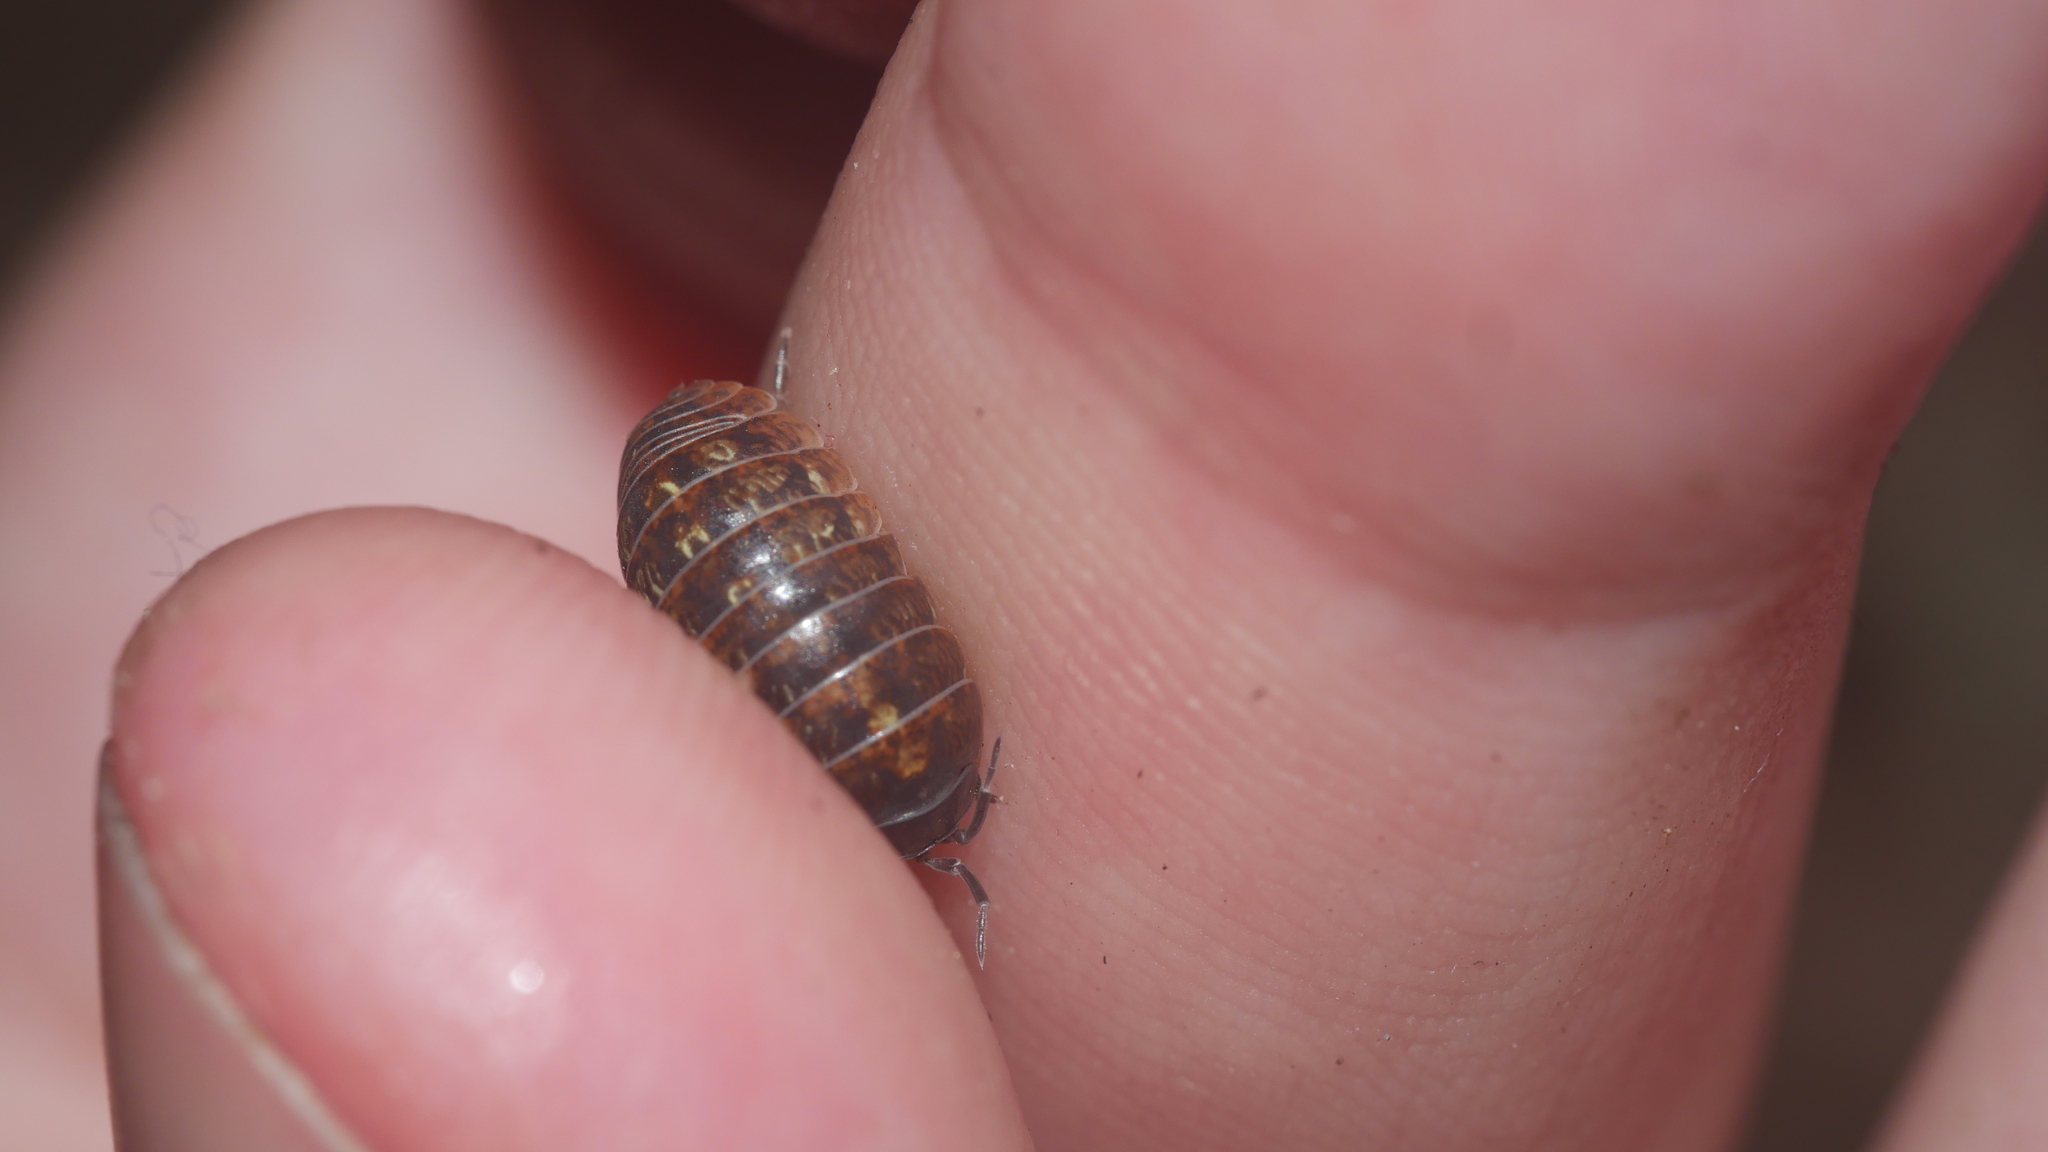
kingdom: Animalia
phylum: Arthropoda
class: Malacostraca
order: Isopoda
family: Armadillidiidae
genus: Armadillidium
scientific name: Armadillidium vulgare
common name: Common pill woodlouse
